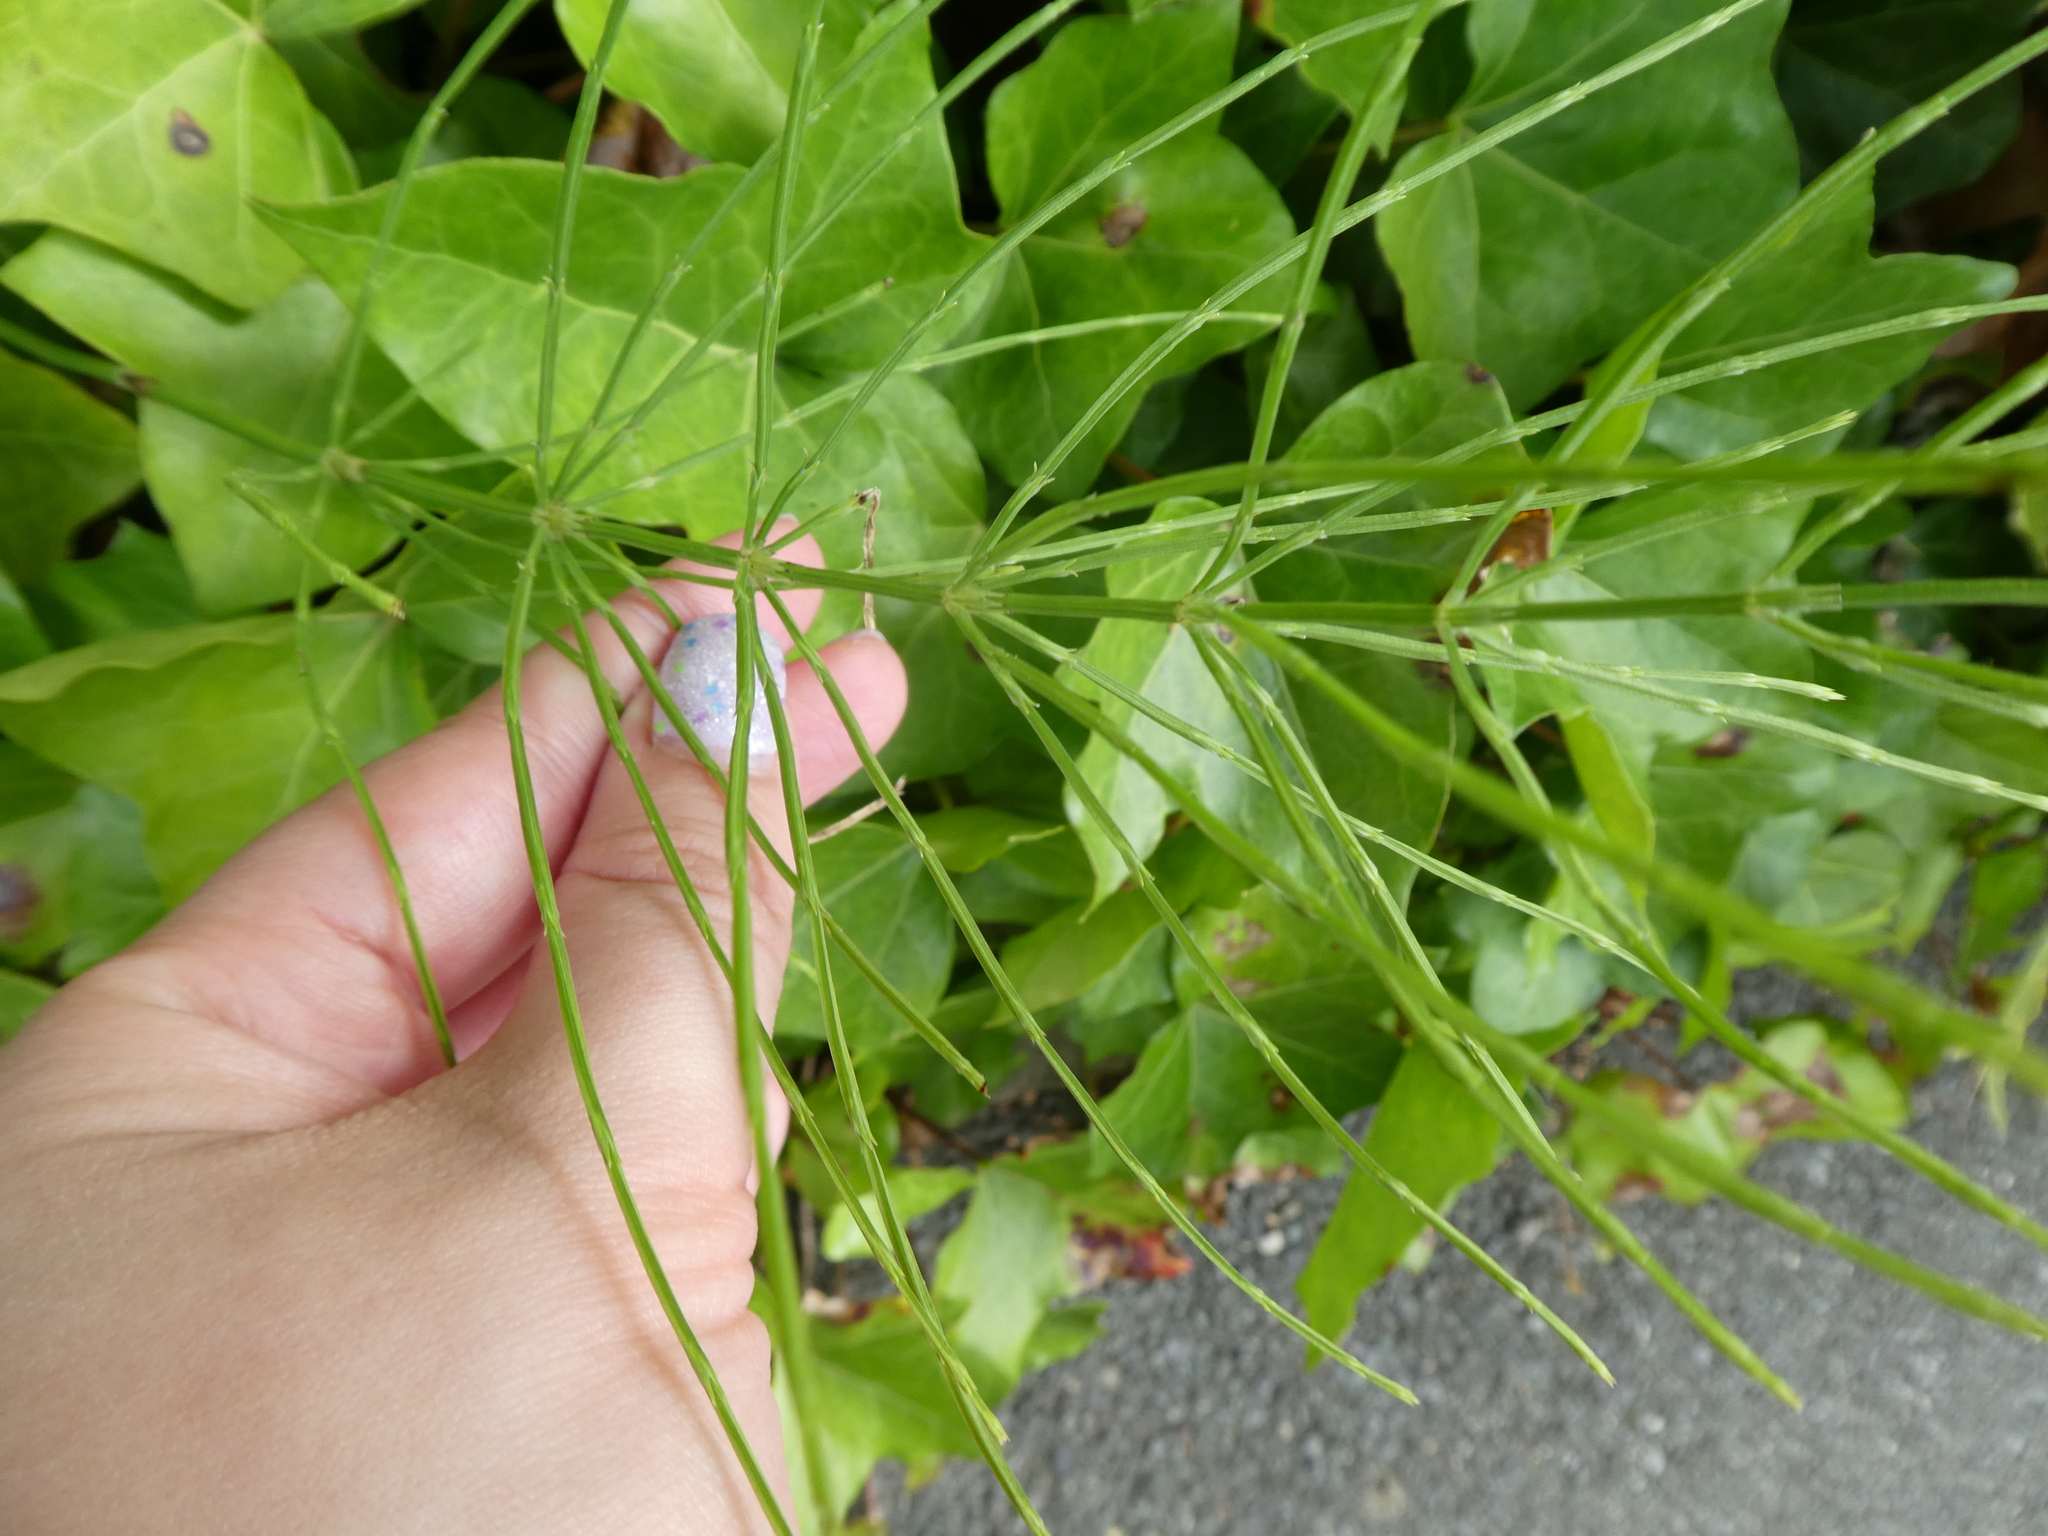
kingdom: Plantae
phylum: Tracheophyta
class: Polypodiopsida
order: Equisetales
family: Equisetaceae
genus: Equisetum
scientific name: Equisetum arvense
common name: Field horsetail
